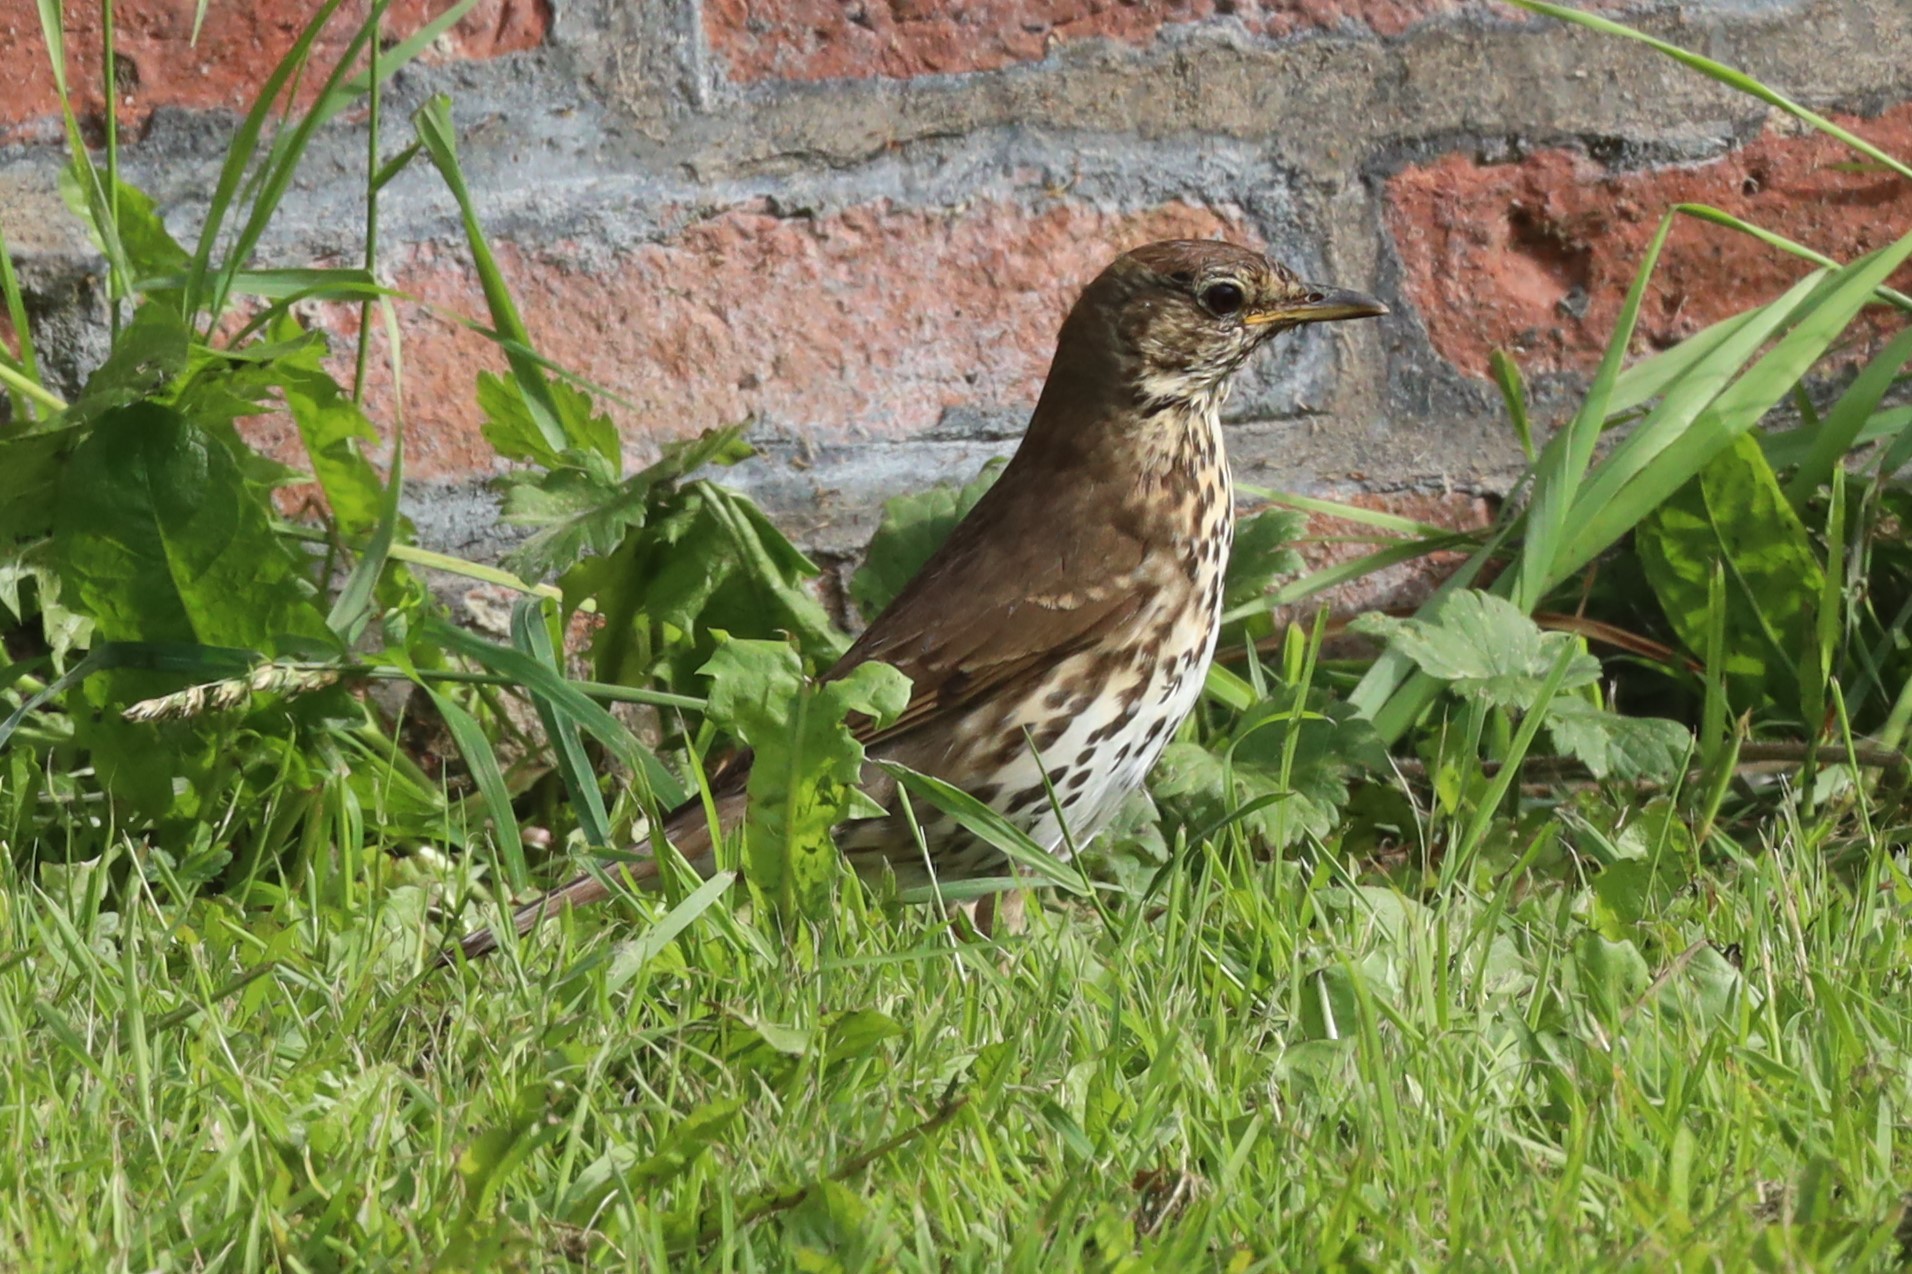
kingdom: Animalia
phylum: Chordata
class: Aves
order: Passeriformes
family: Turdidae
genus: Turdus
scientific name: Turdus philomelos
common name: Song thrush
